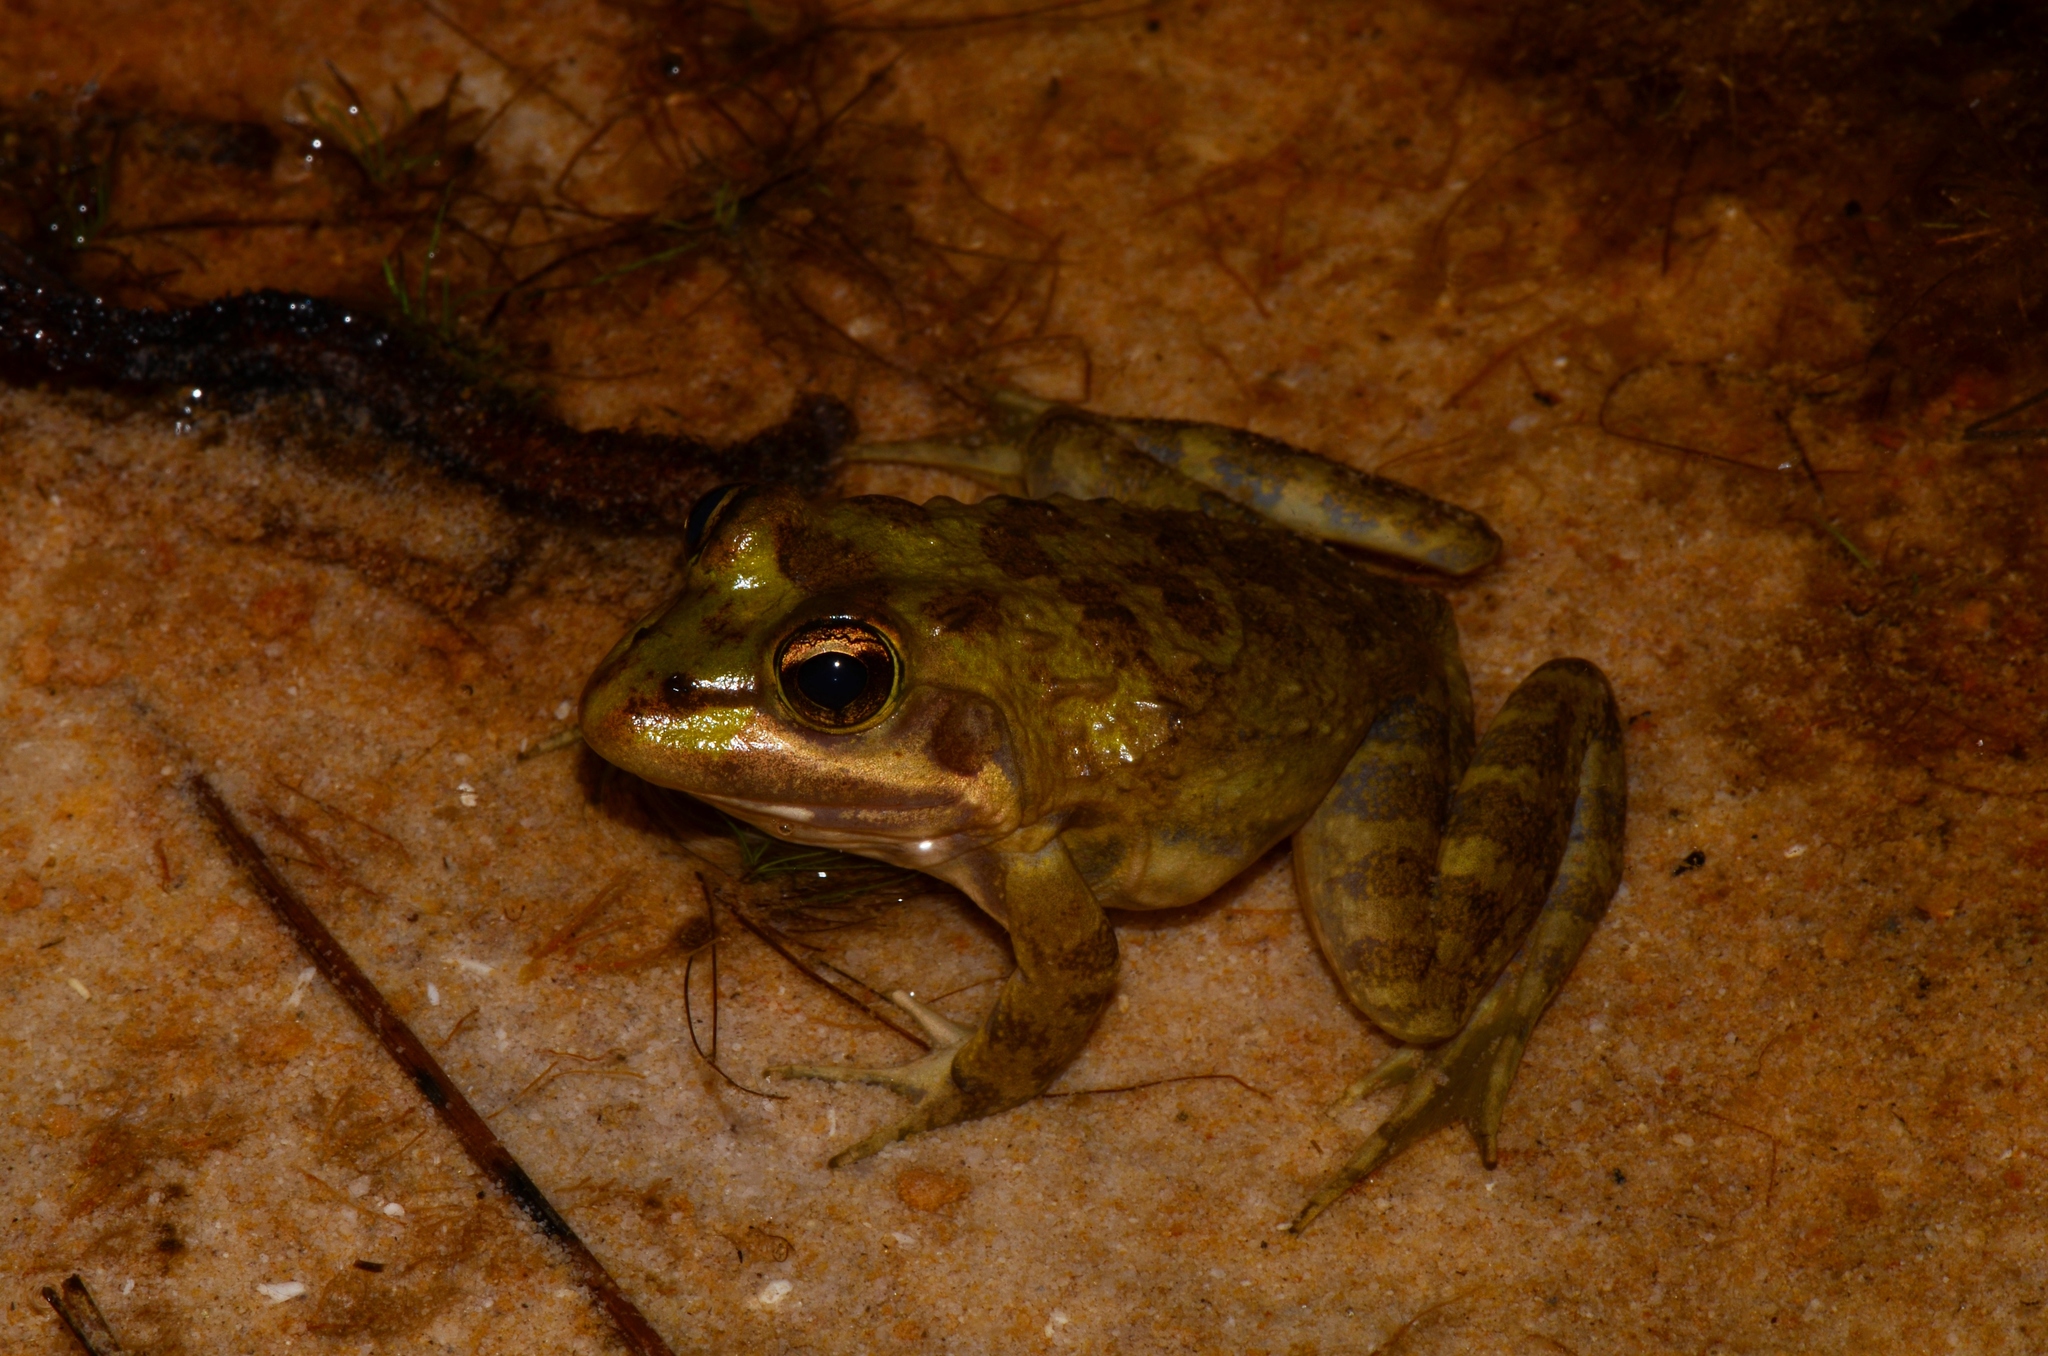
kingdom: Animalia
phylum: Chordata
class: Amphibia
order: Anura
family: Pyxicephalidae
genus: Amietia
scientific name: Amietia fuscigula
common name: Cape rana
